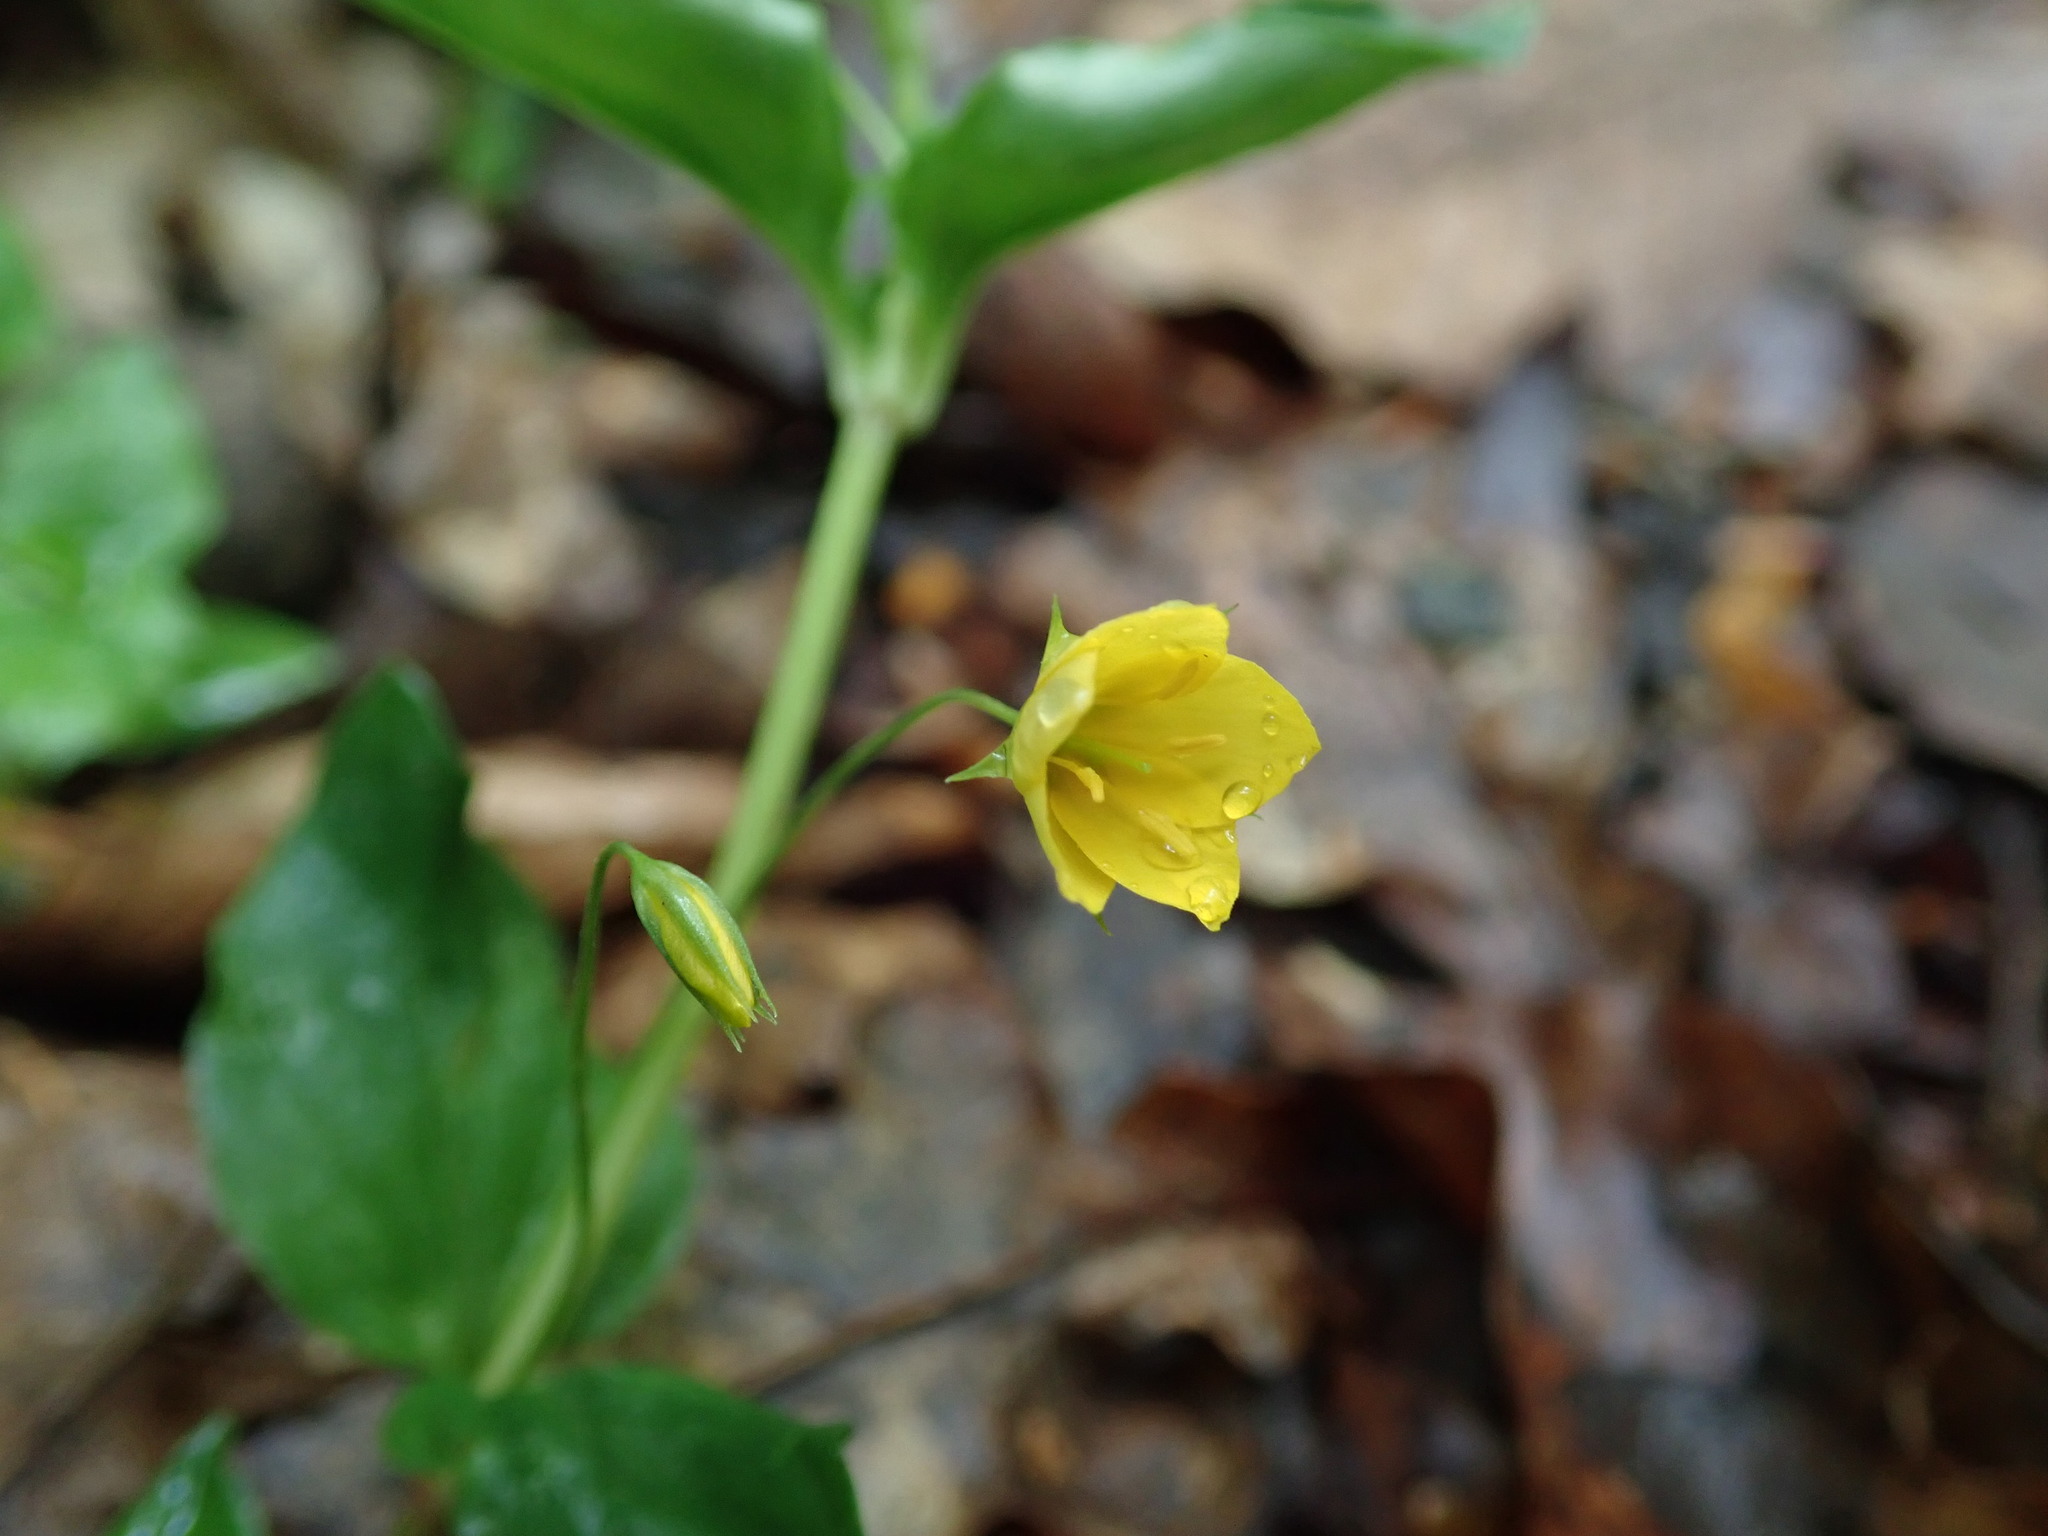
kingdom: Plantae
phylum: Tracheophyta
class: Magnoliopsida
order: Ericales
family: Primulaceae
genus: Lysimachia
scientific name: Lysimachia nemorum
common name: Yellow pimpernel
